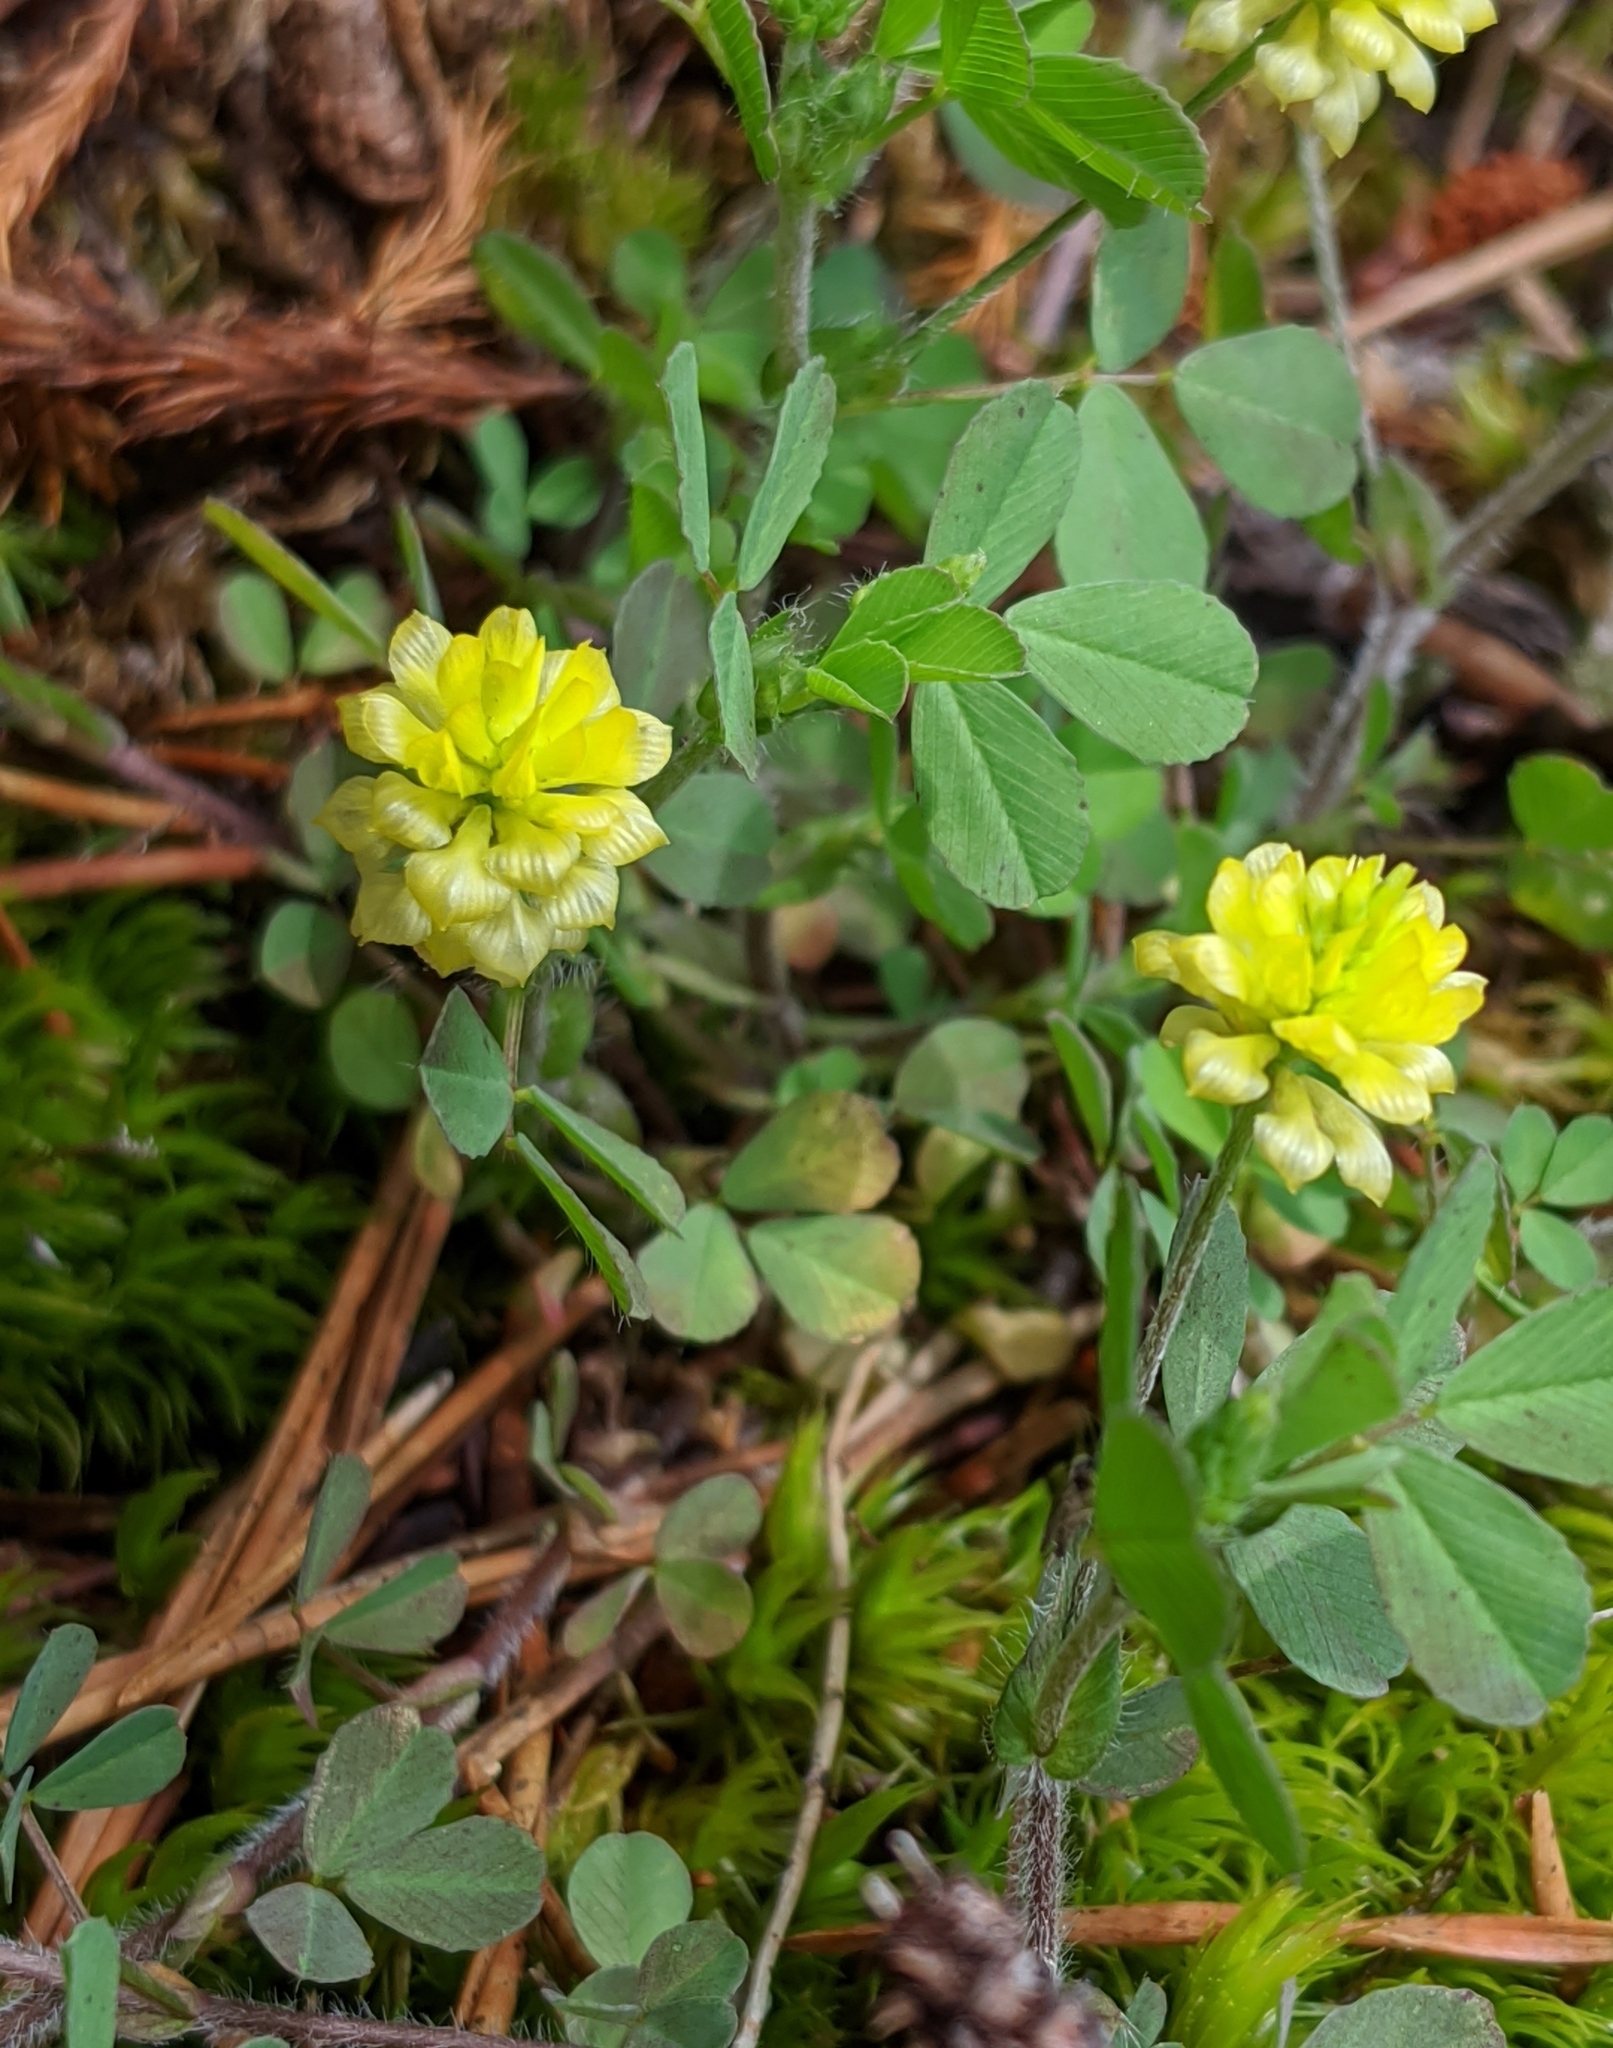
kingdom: Plantae
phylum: Tracheophyta
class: Magnoliopsida
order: Fabales
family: Fabaceae
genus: Trifolium
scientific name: Trifolium campestre
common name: Field clover
